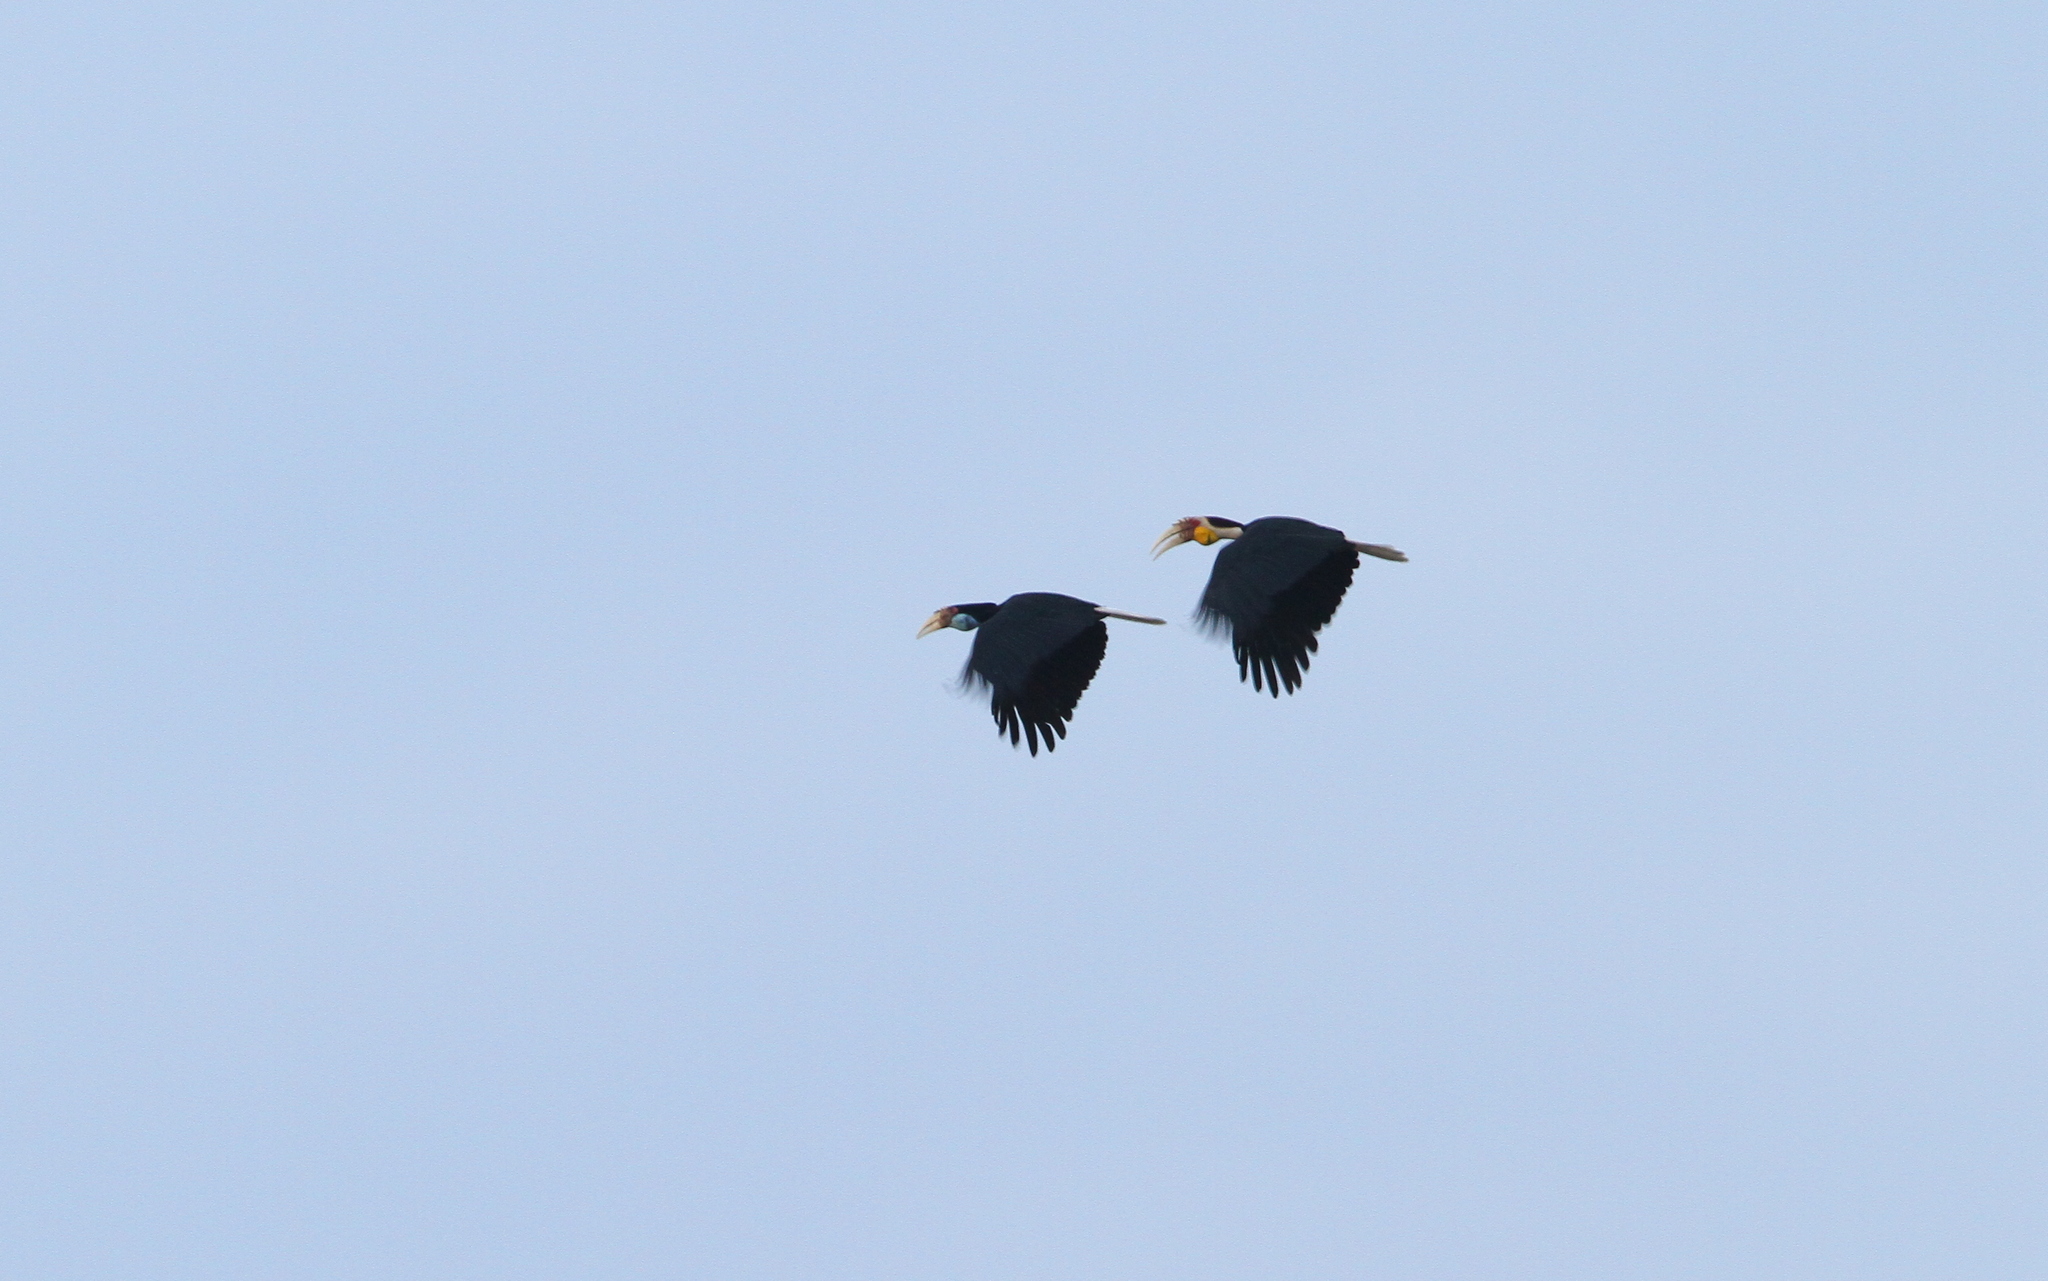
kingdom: Animalia
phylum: Chordata
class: Aves
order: Bucerotiformes
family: Bucerotidae
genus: Rhyticeros
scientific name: Rhyticeros undulatus
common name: Wreathed hornbill
